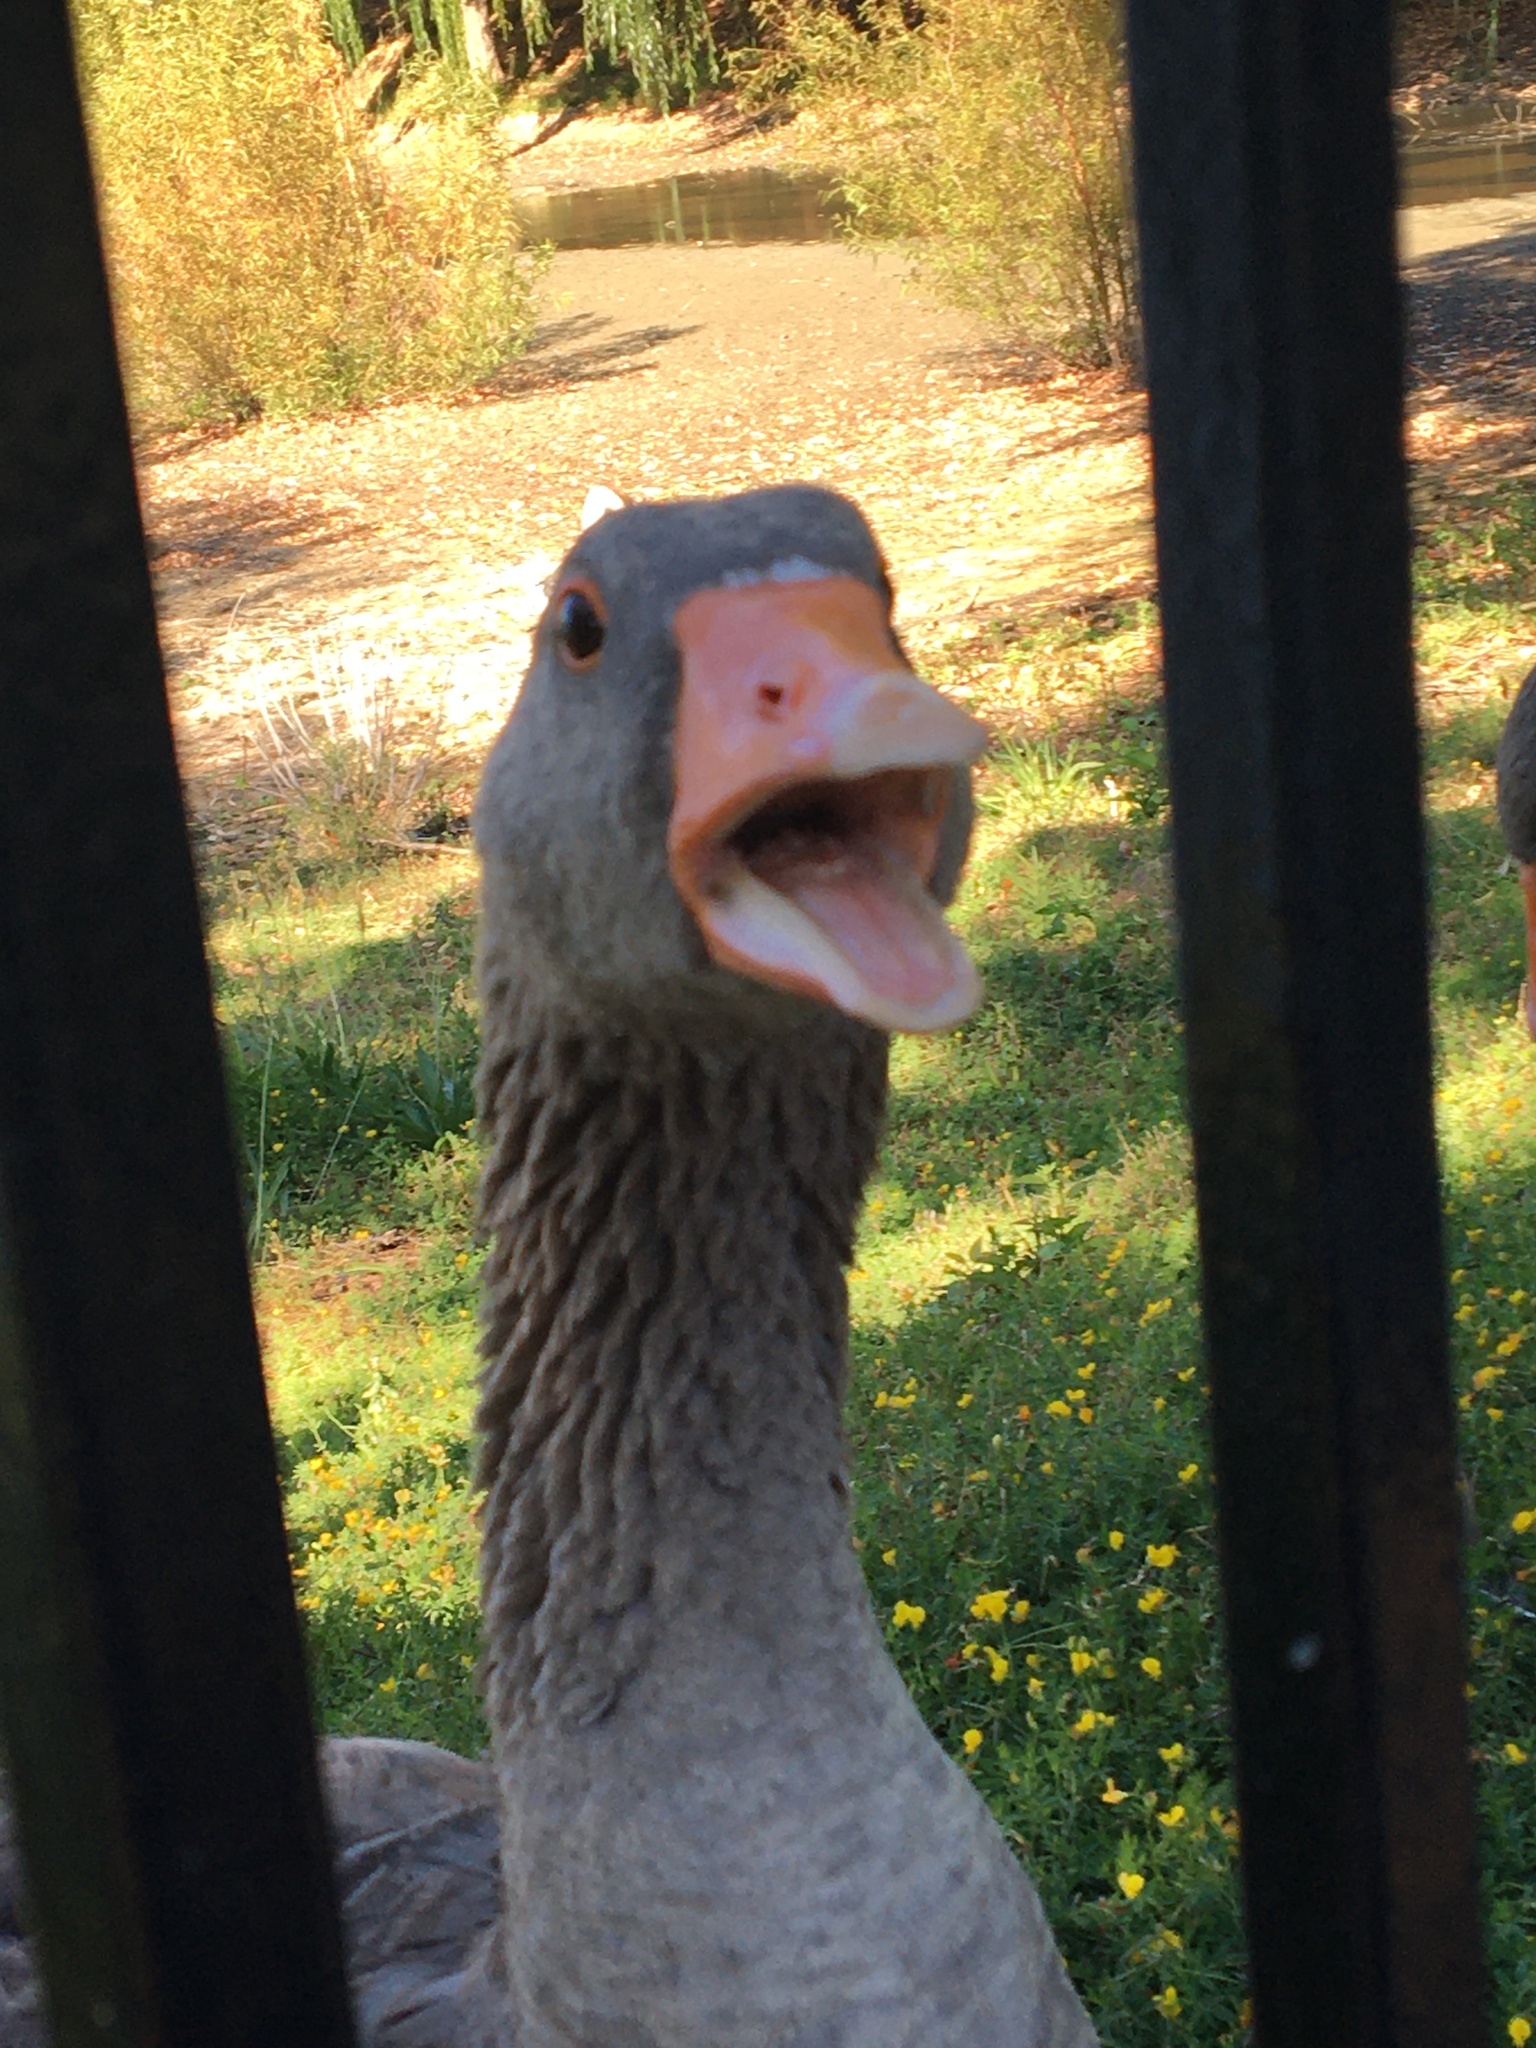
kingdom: Animalia
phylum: Chordata
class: Aves
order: Anseriformes
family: Anatidae
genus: Anser
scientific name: Anser anser
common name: Greylag goose
